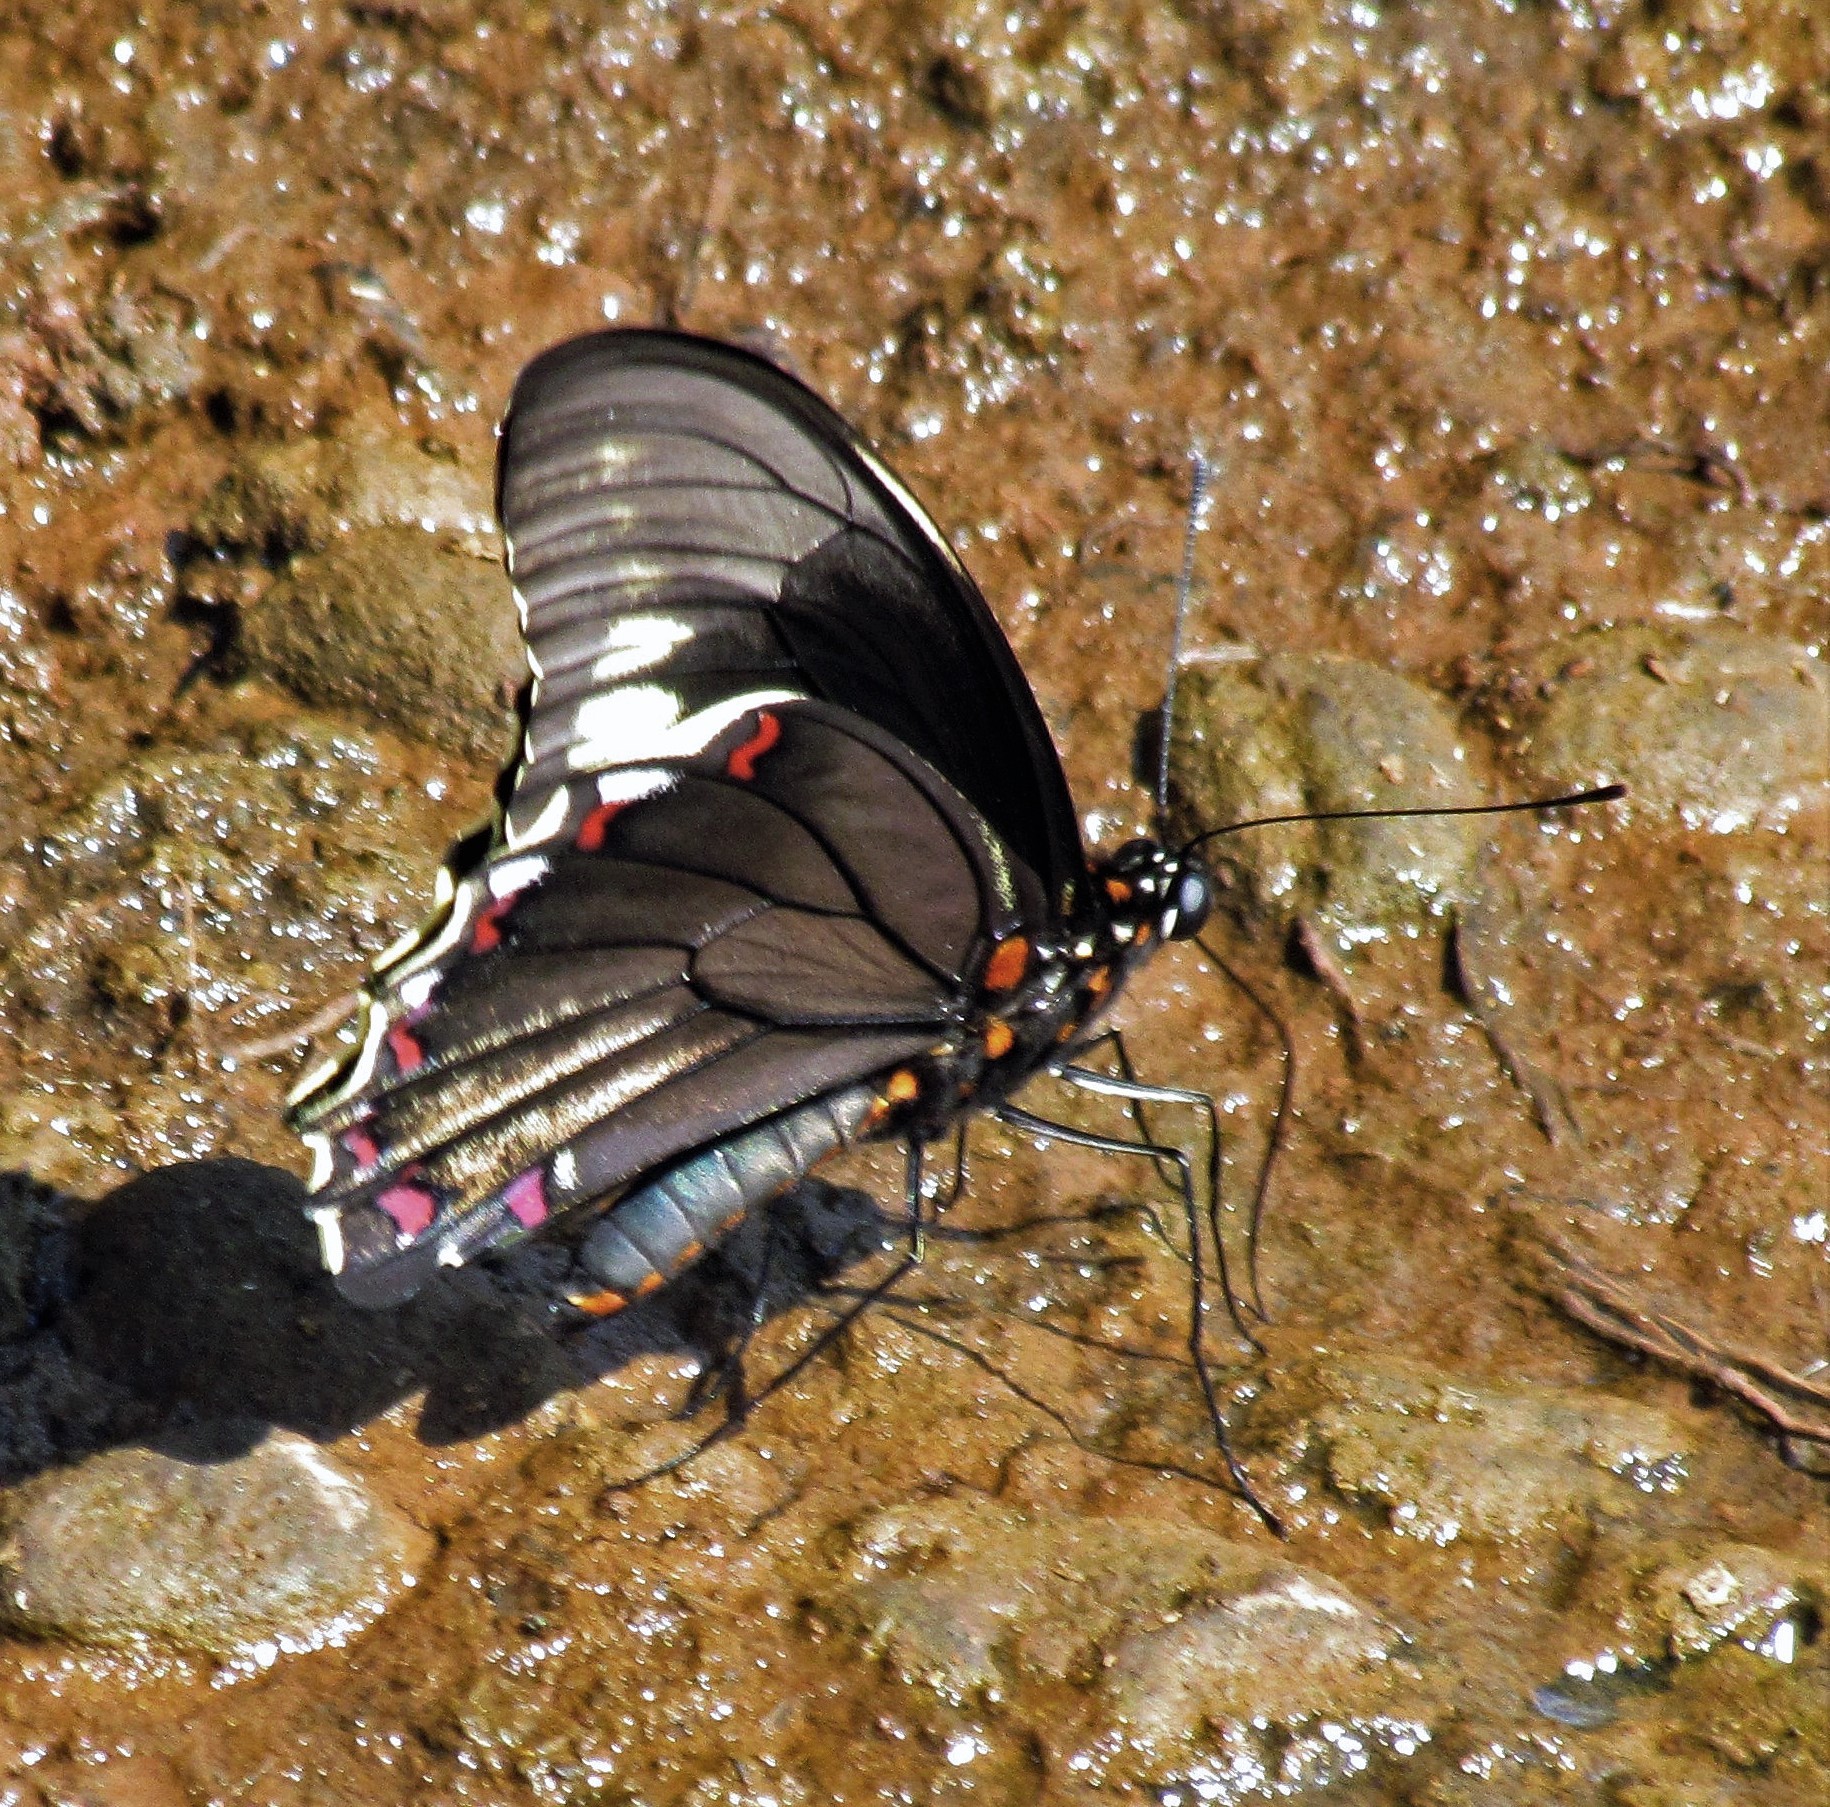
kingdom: Animalia
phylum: Arthropoda
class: Insecta
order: Lepidoptera
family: Papilionidae
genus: Battus
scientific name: Battus polydamas
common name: Polydamas swallowtail
